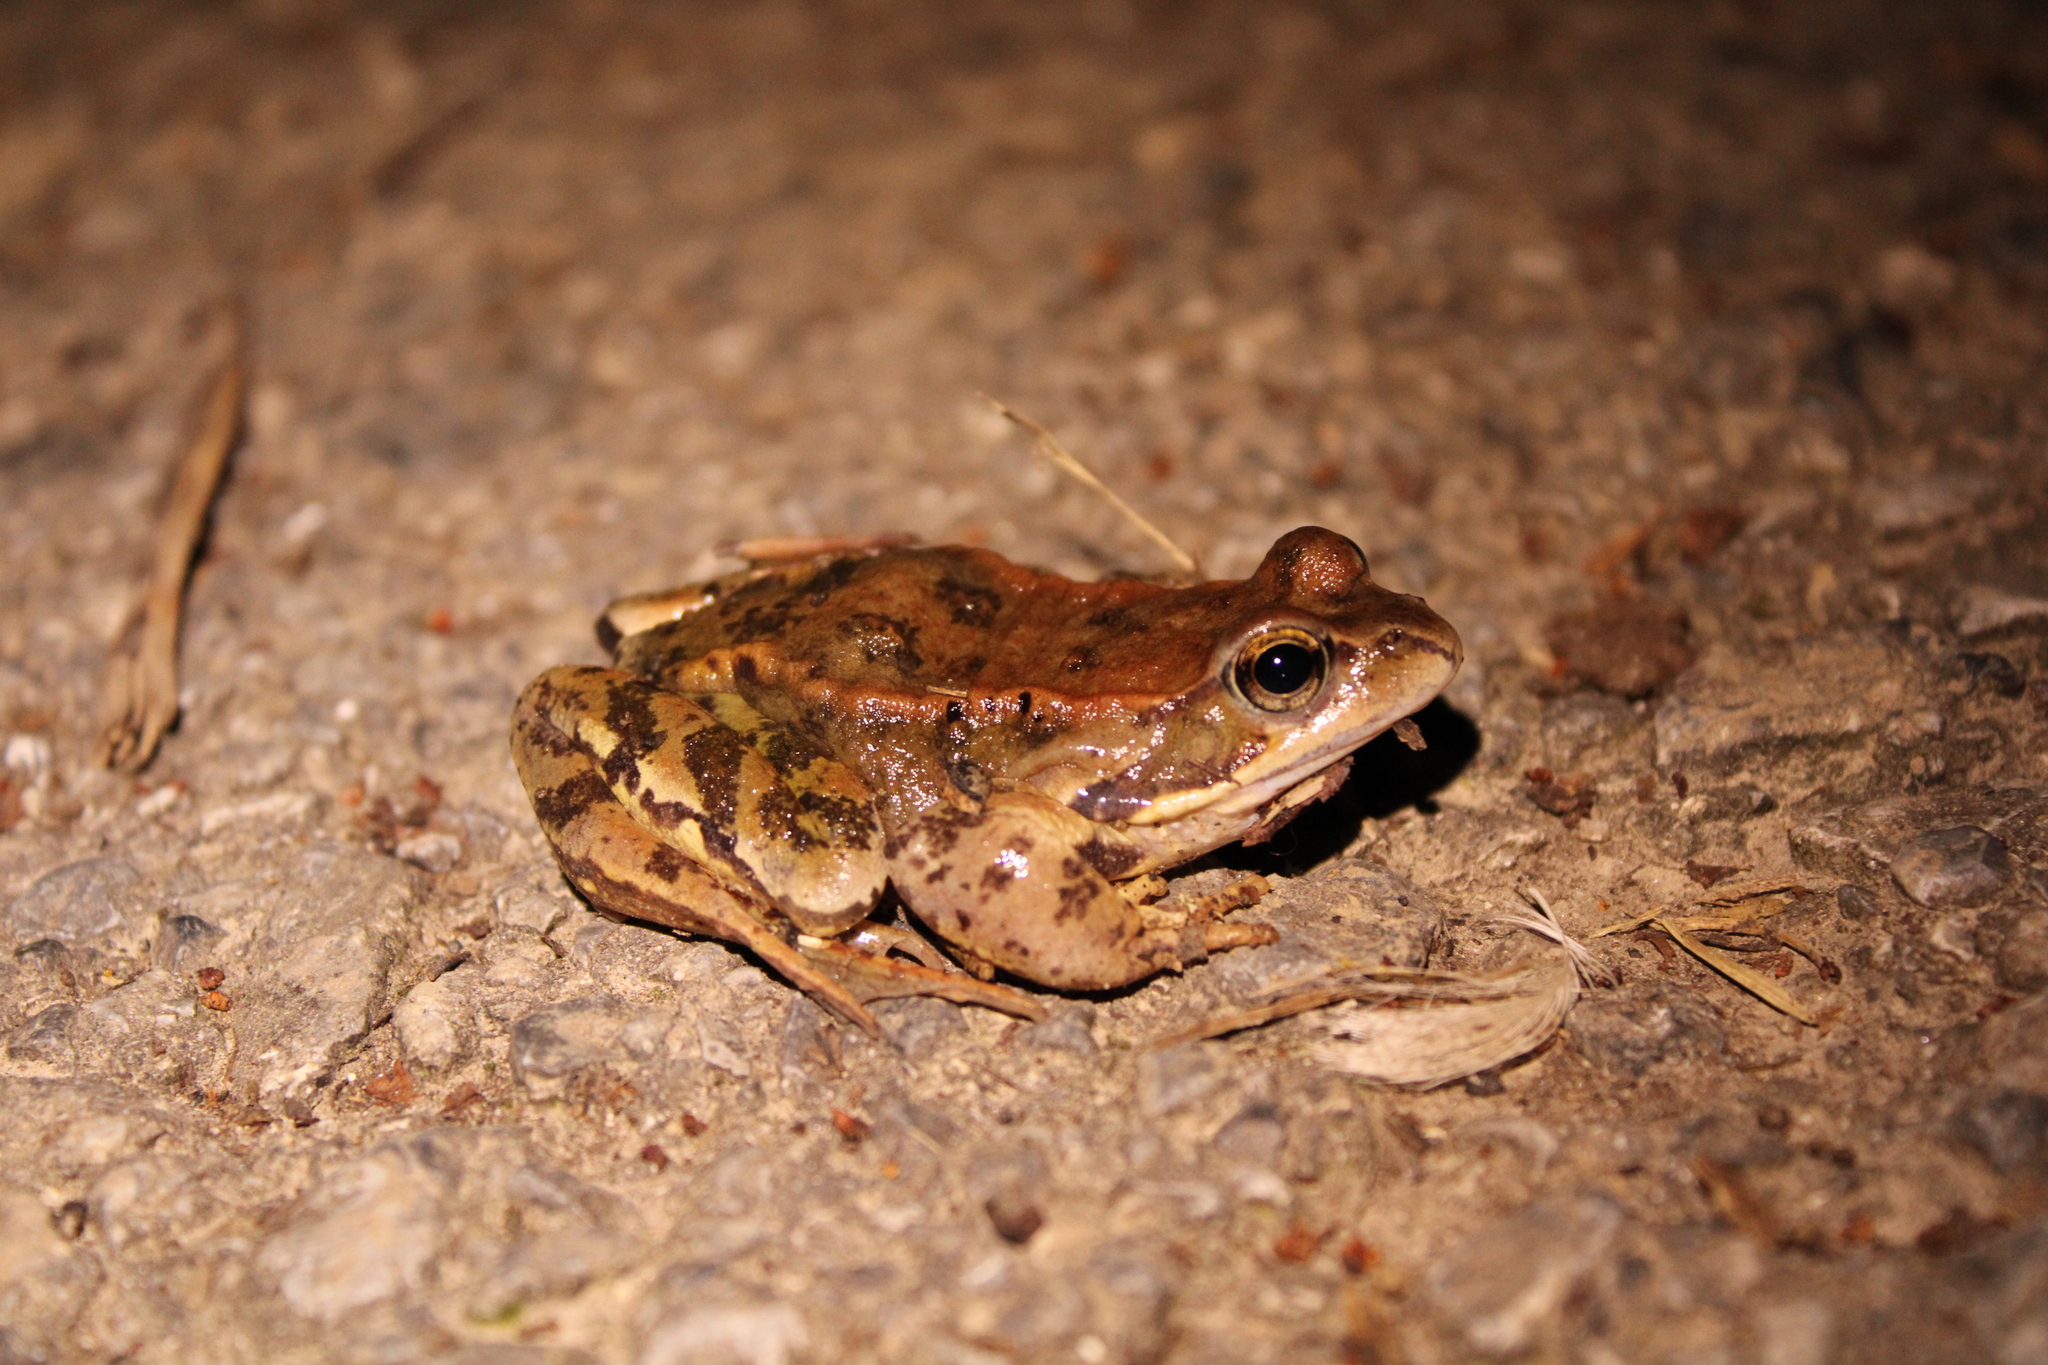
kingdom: Animalia
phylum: Chordata
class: Amphibia
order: Anura
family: Ranidae
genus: Rana
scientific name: Rana temporaria
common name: Common frog
